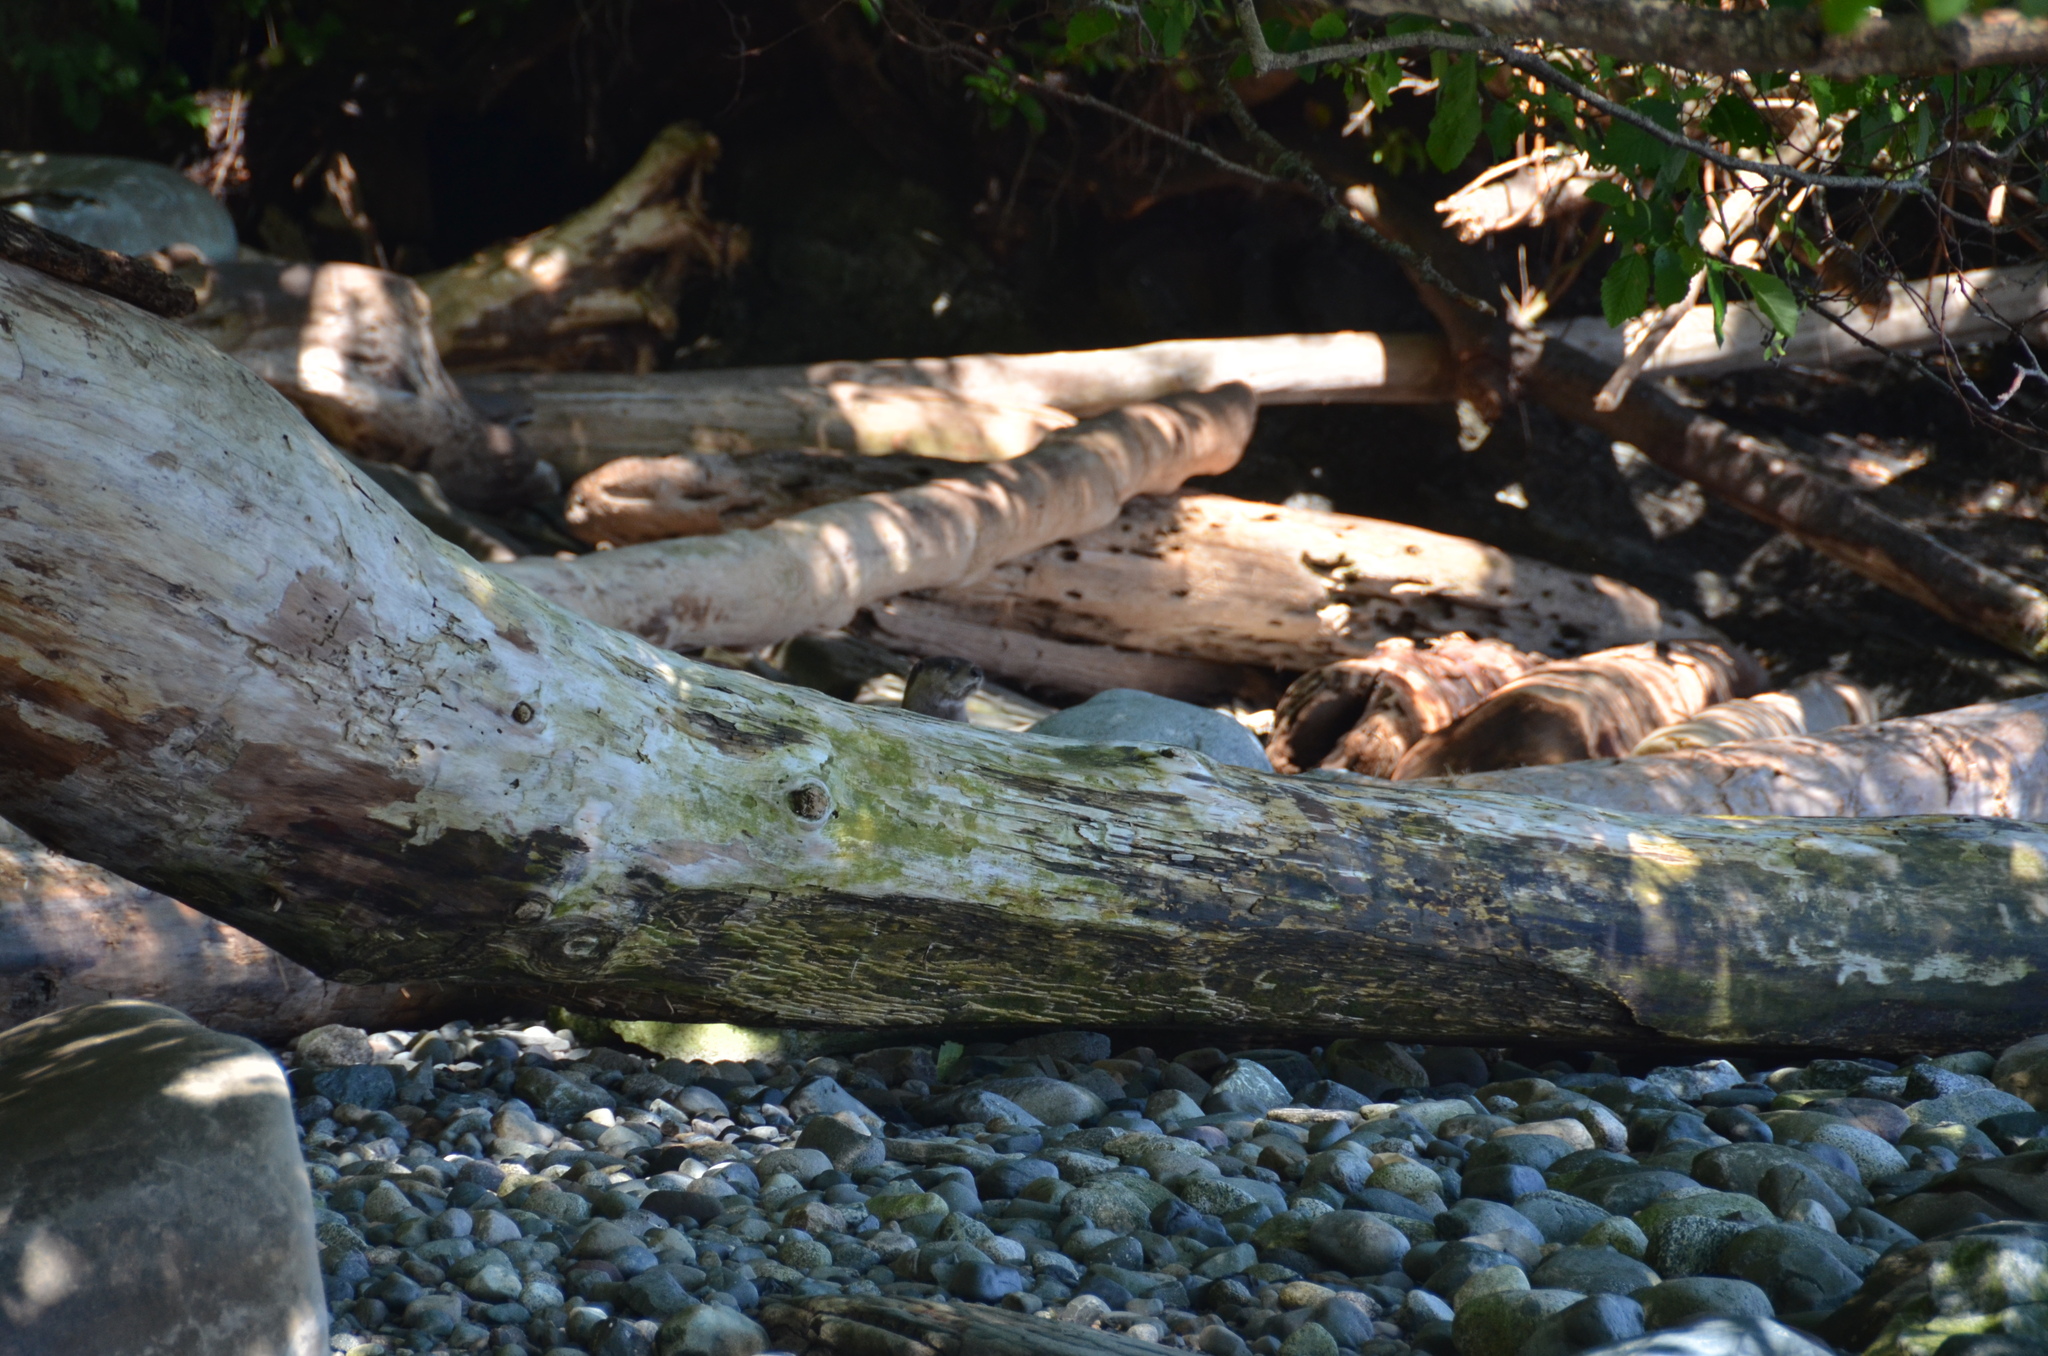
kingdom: Animalia
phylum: Chordata
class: Mammalia
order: Carnivora
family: Mustelidae
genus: Lontra
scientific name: Lontra canadensis
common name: North american river otter
